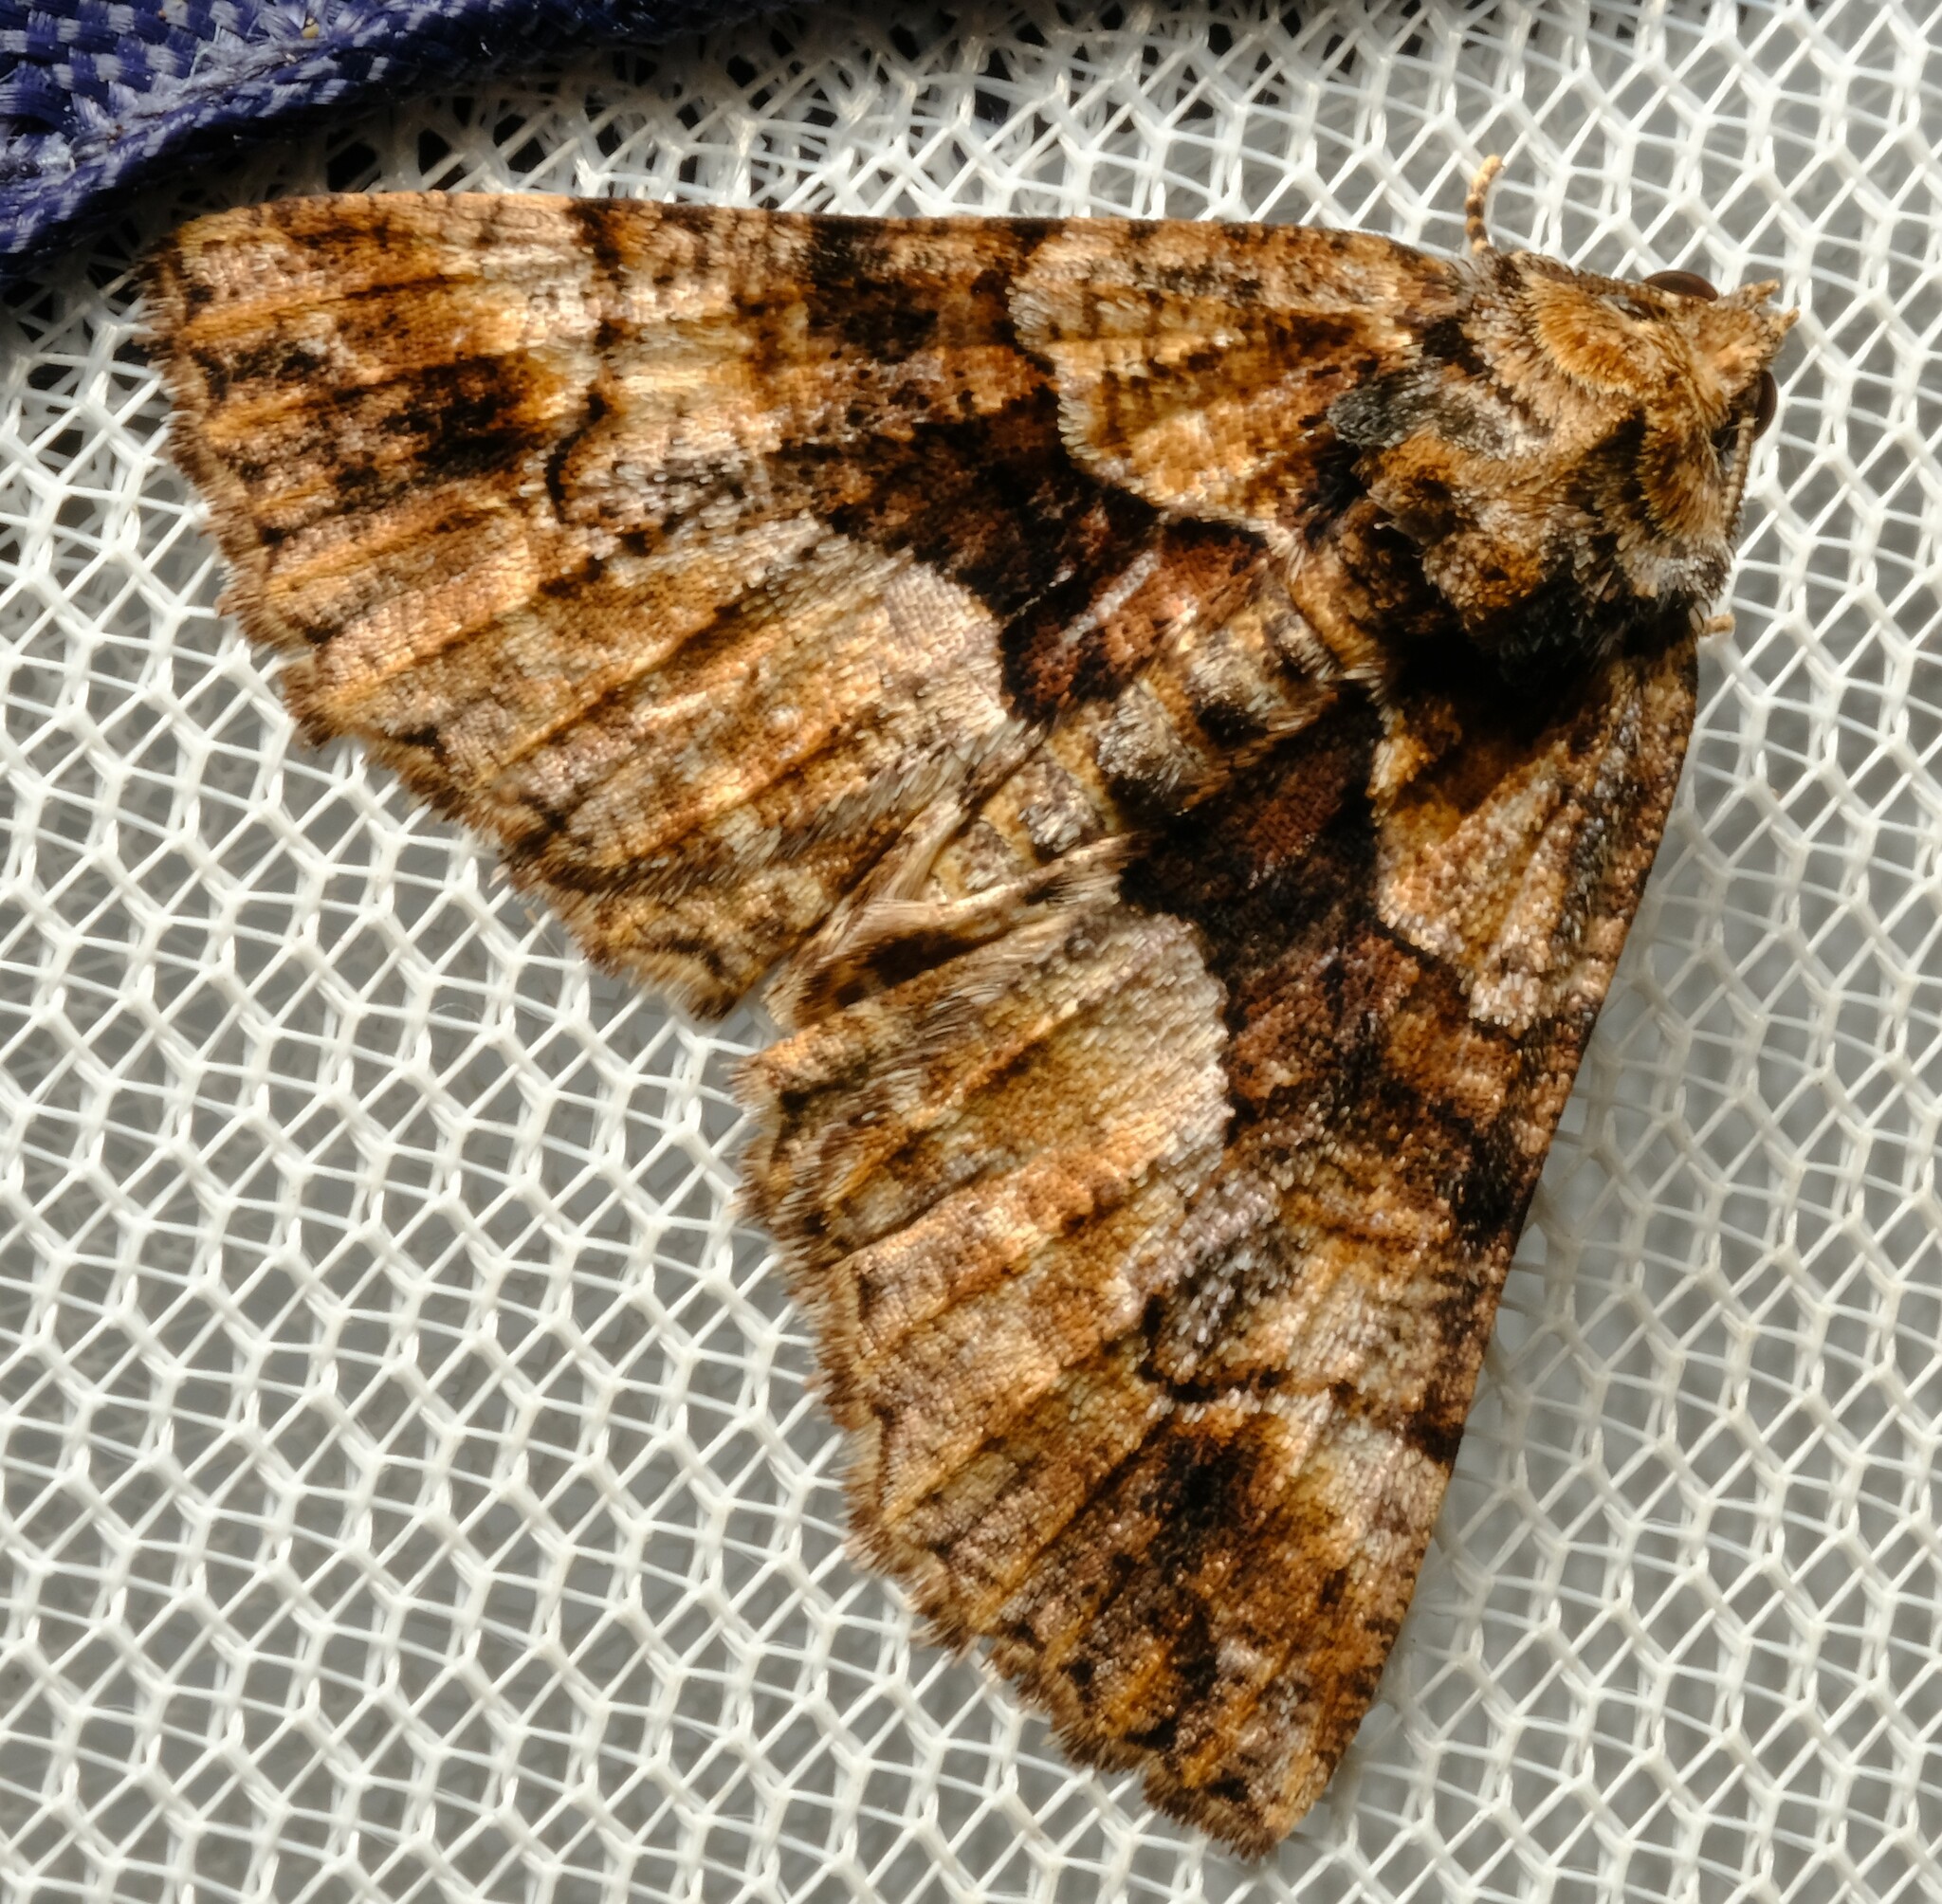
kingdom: Animalia
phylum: Arthropoda
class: Insecta
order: Lepidoptera
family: Geometridae
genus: Gastrina
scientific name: Gastrina cristaria
